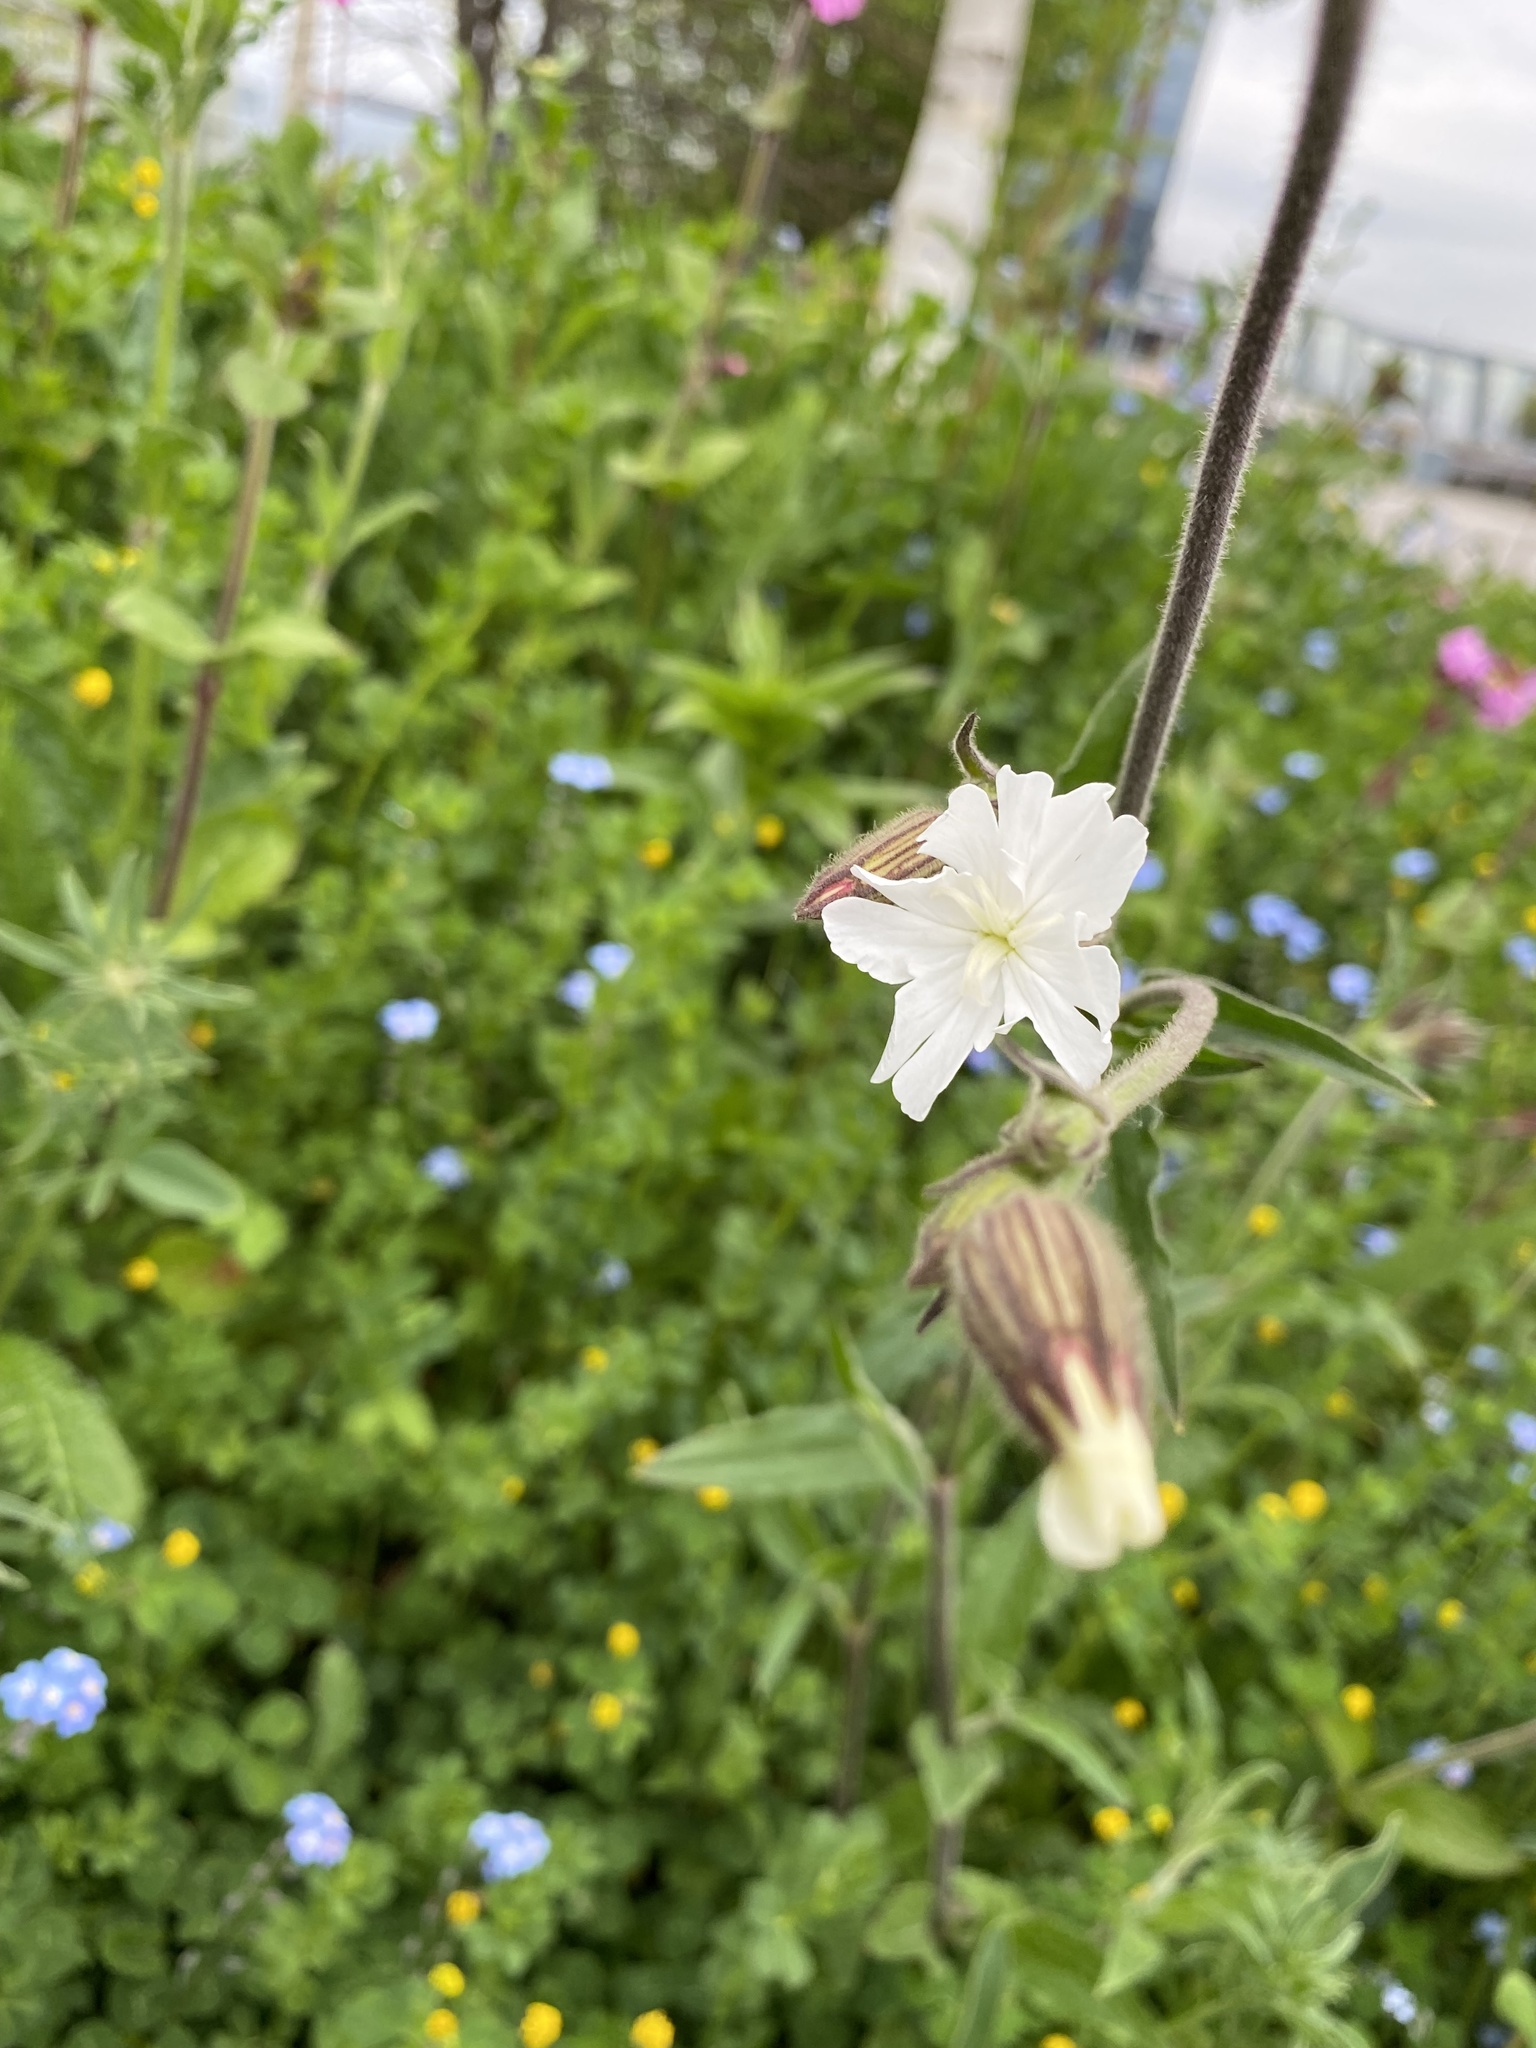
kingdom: Plantae
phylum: Tracheophyta
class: Magnoliopsida
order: Caryophyllales
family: Caryophyllaceae
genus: Silene
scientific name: Silene latifolia
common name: White campion
